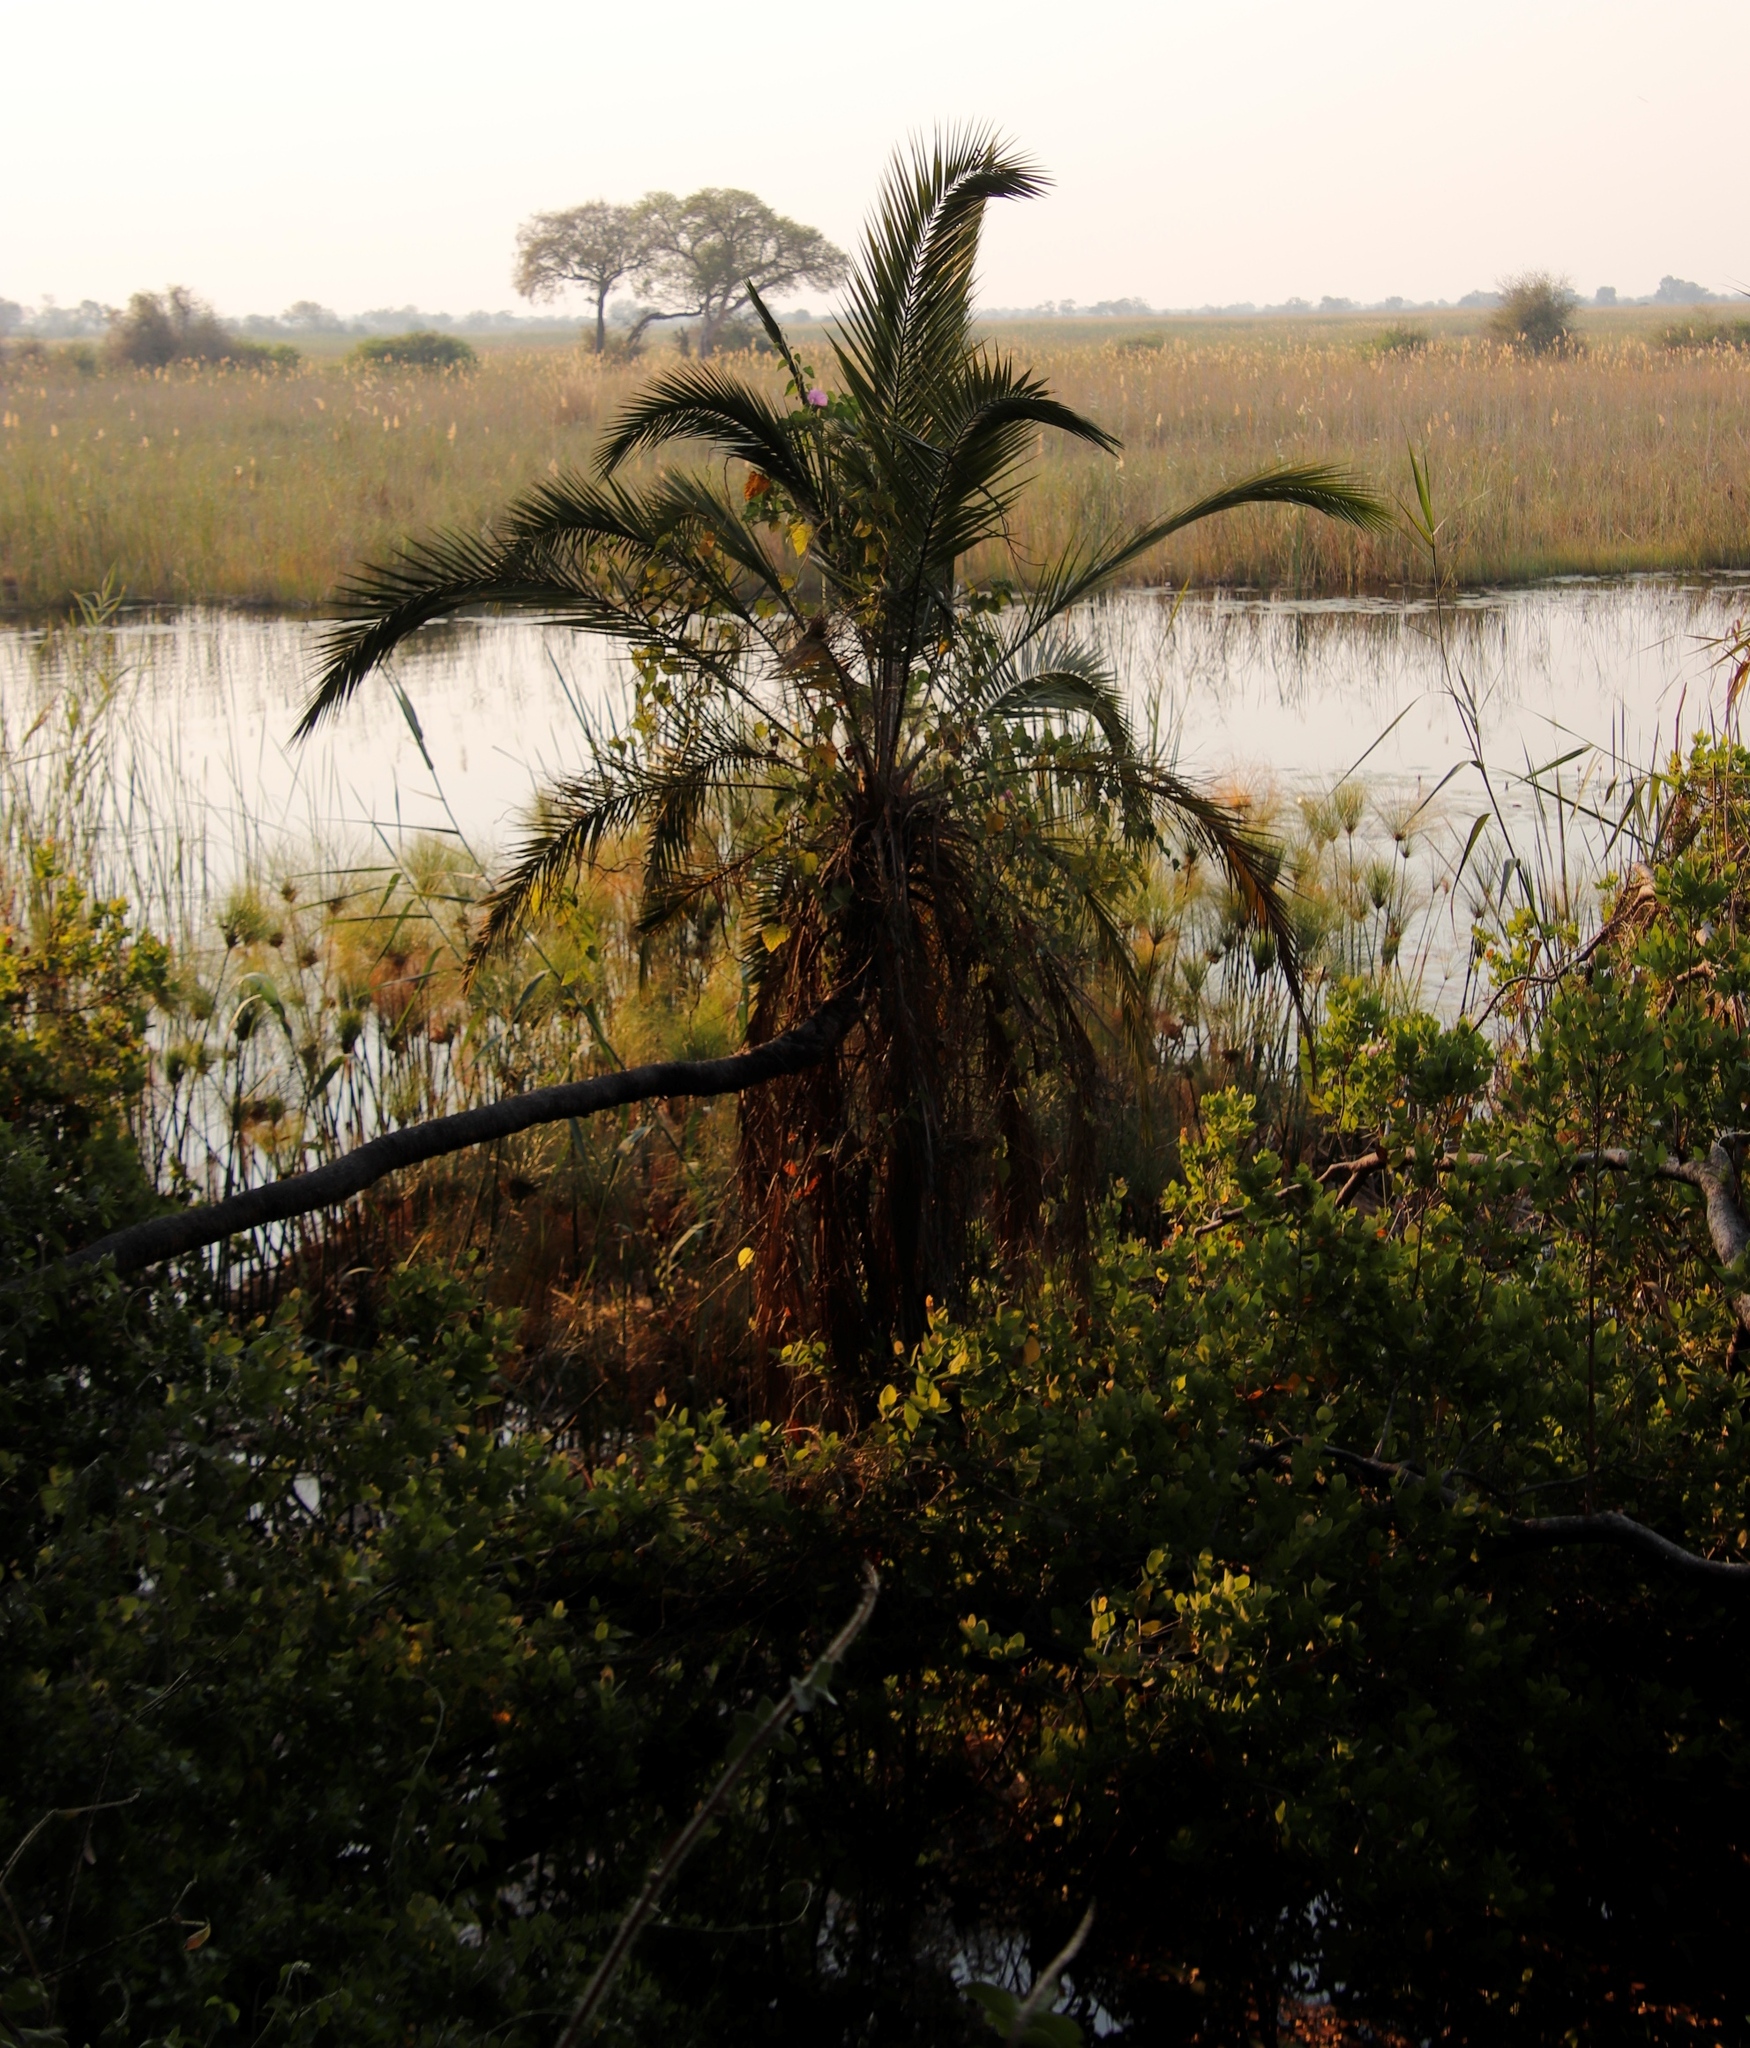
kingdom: Plantae
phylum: Tracheophyta
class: Liliopsida
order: Arecales
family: Arecaceae
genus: Phoenix
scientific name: Phoenix reclinata
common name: Senegal date palm
